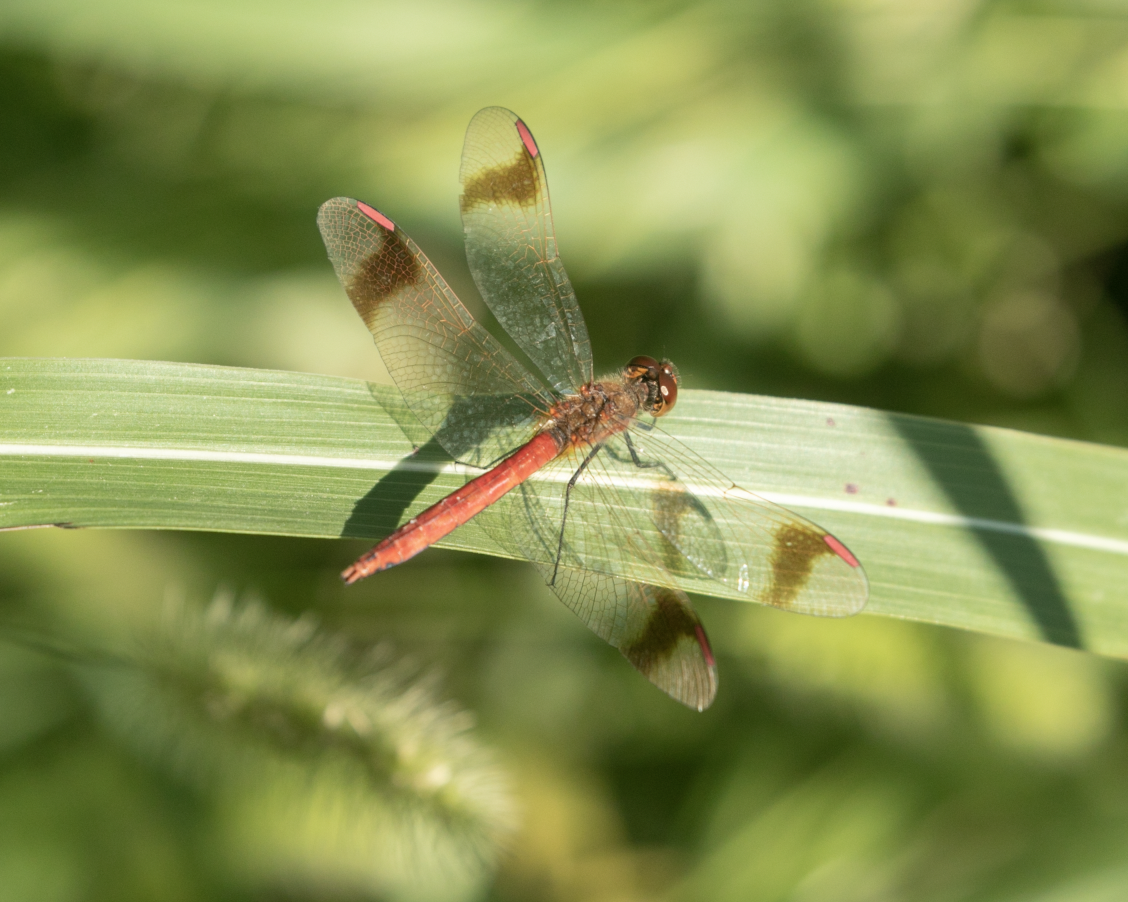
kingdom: Animalia
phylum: Arthropoda
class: Insecta
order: Odonata
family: Libellulidae
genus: Sympetrum
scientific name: Sympetrum pedemontanum
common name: Banded darter
